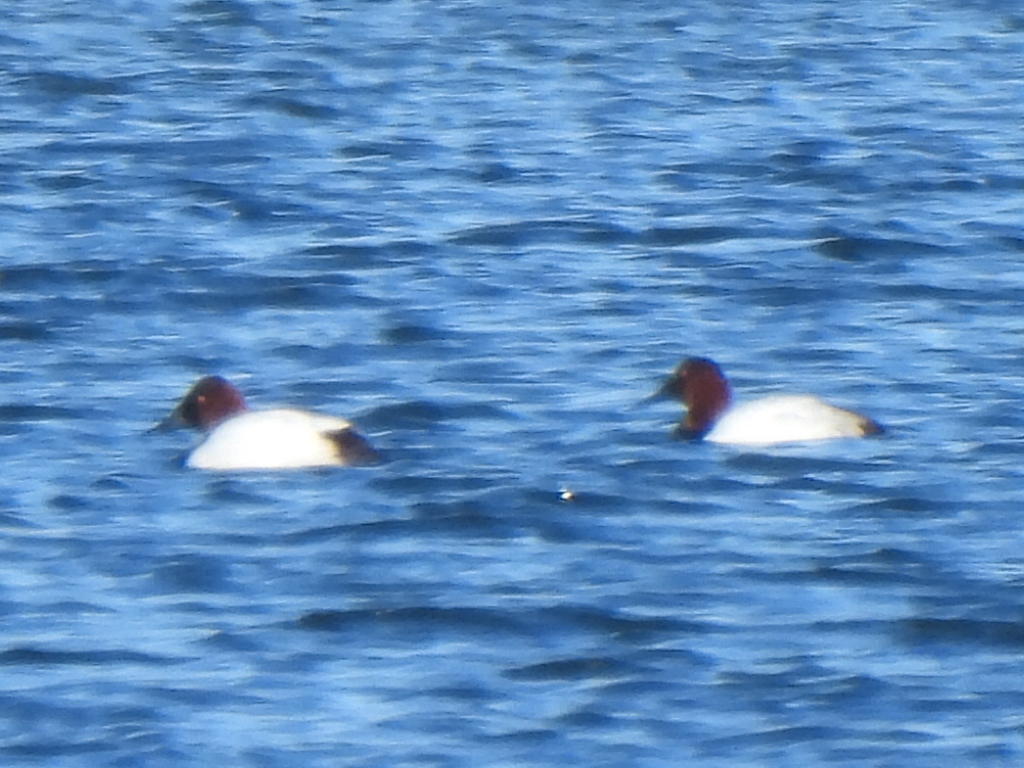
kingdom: Animalia
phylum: Chordata
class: Aves
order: Anseriformes
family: Anatidae
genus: Aythya
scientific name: Aythya valisineria
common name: Canvasback
